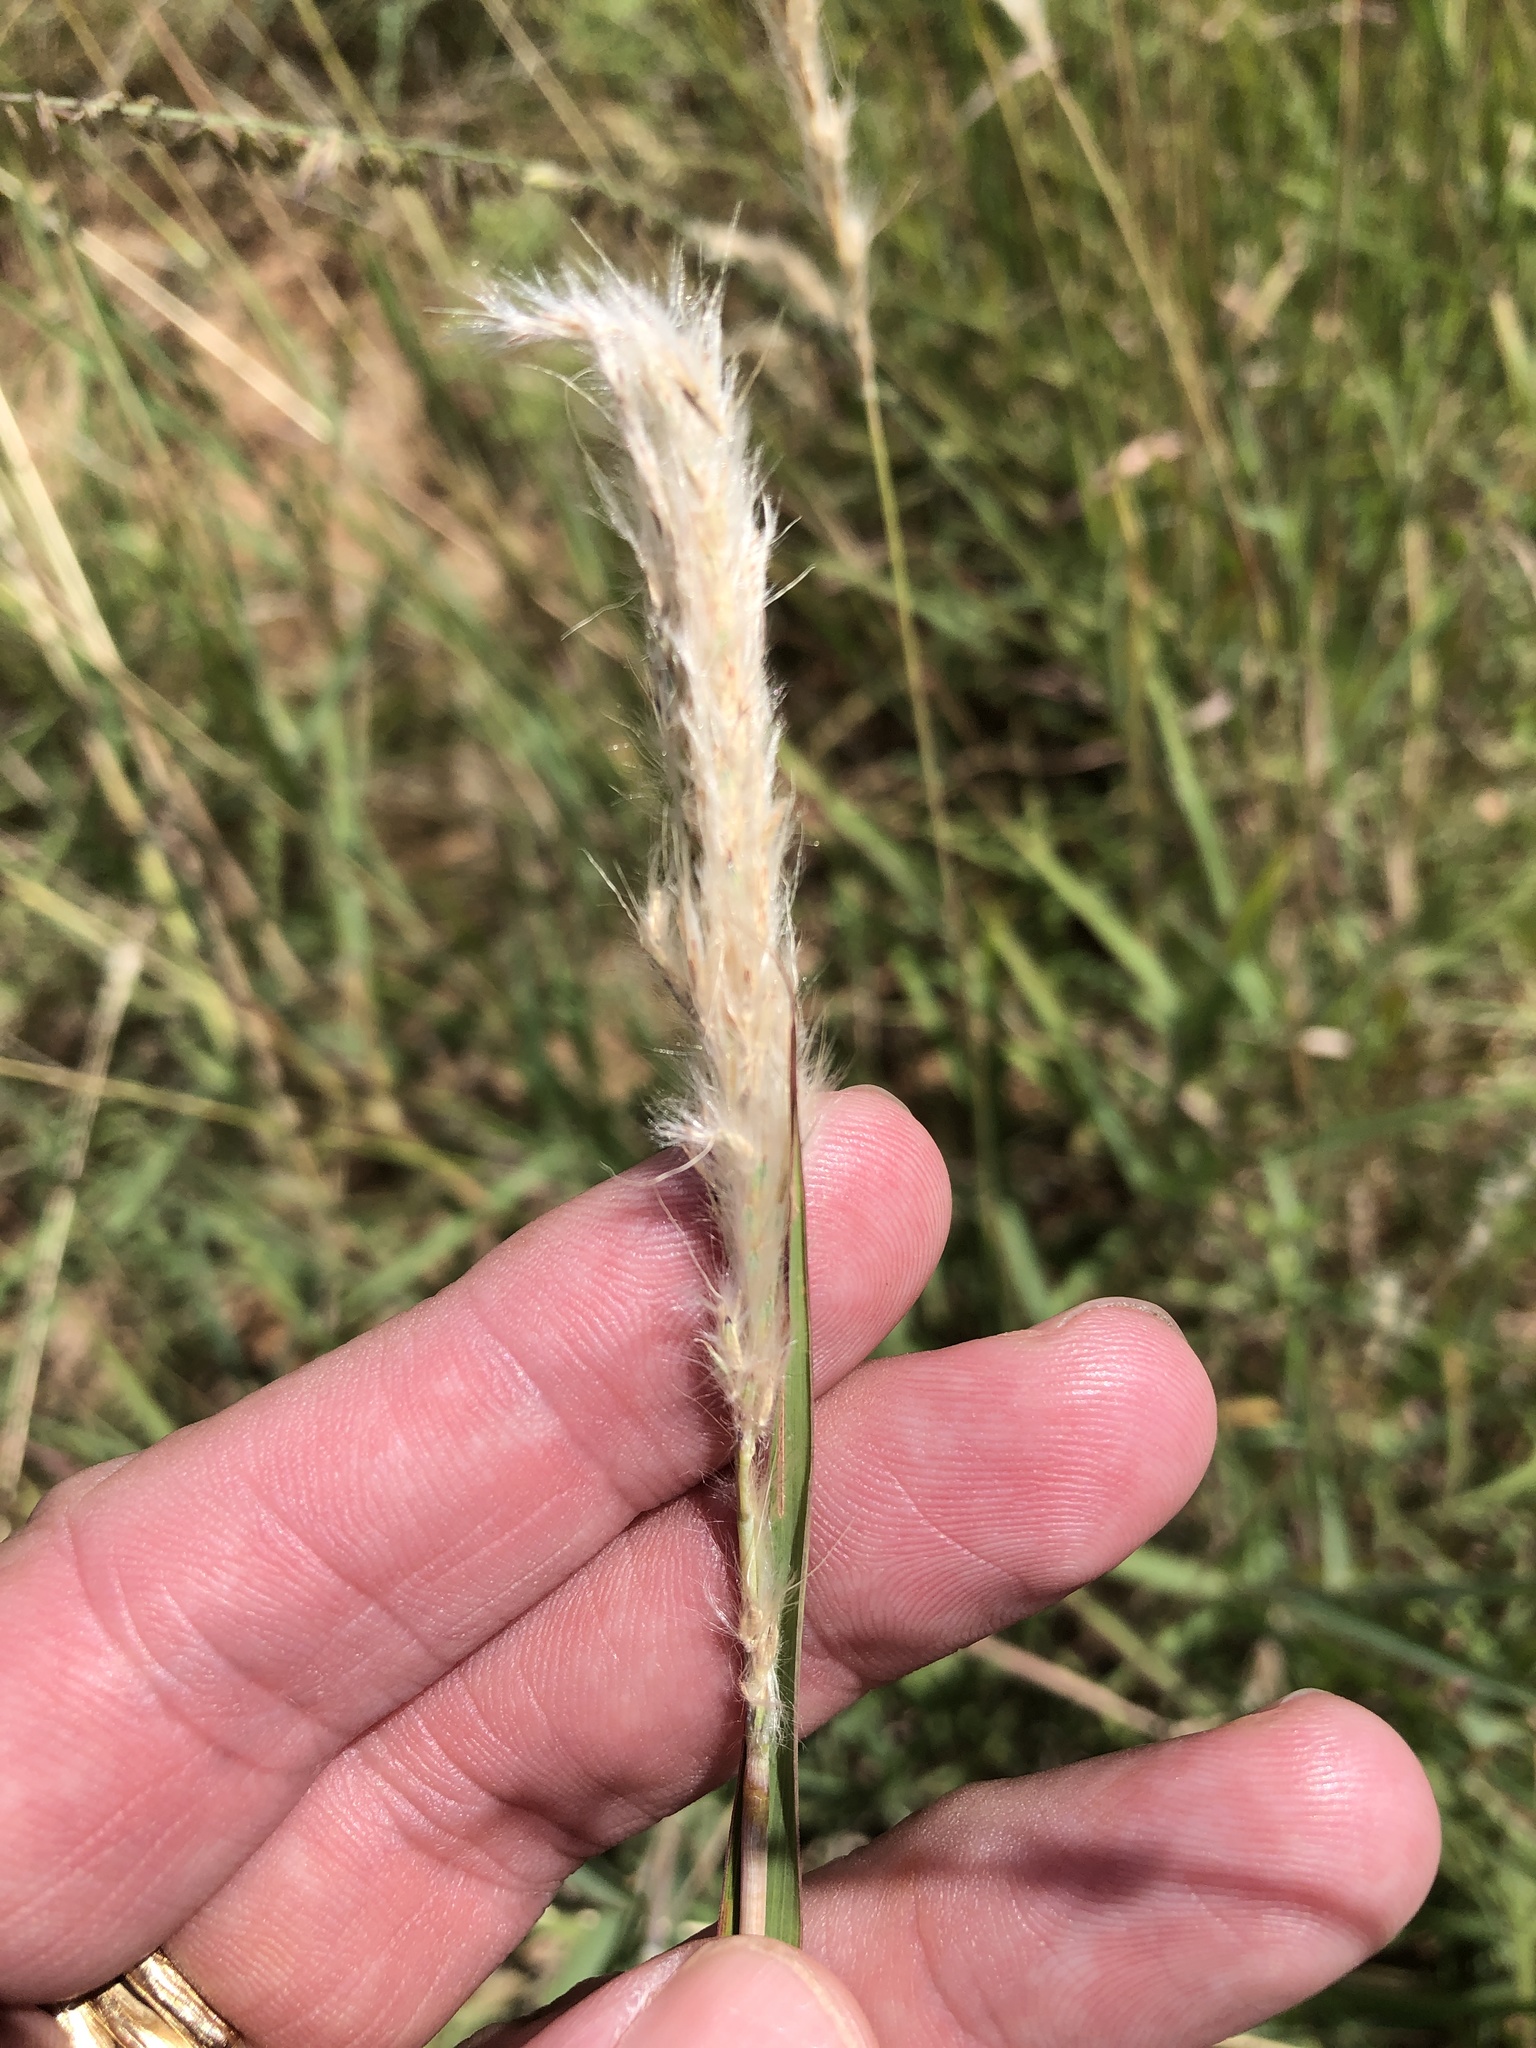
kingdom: Plantae
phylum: Tracheophyta
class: Liliopsida
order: Poales
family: Poaceae
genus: Bothriochloa
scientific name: Bothriochloa torreyana
